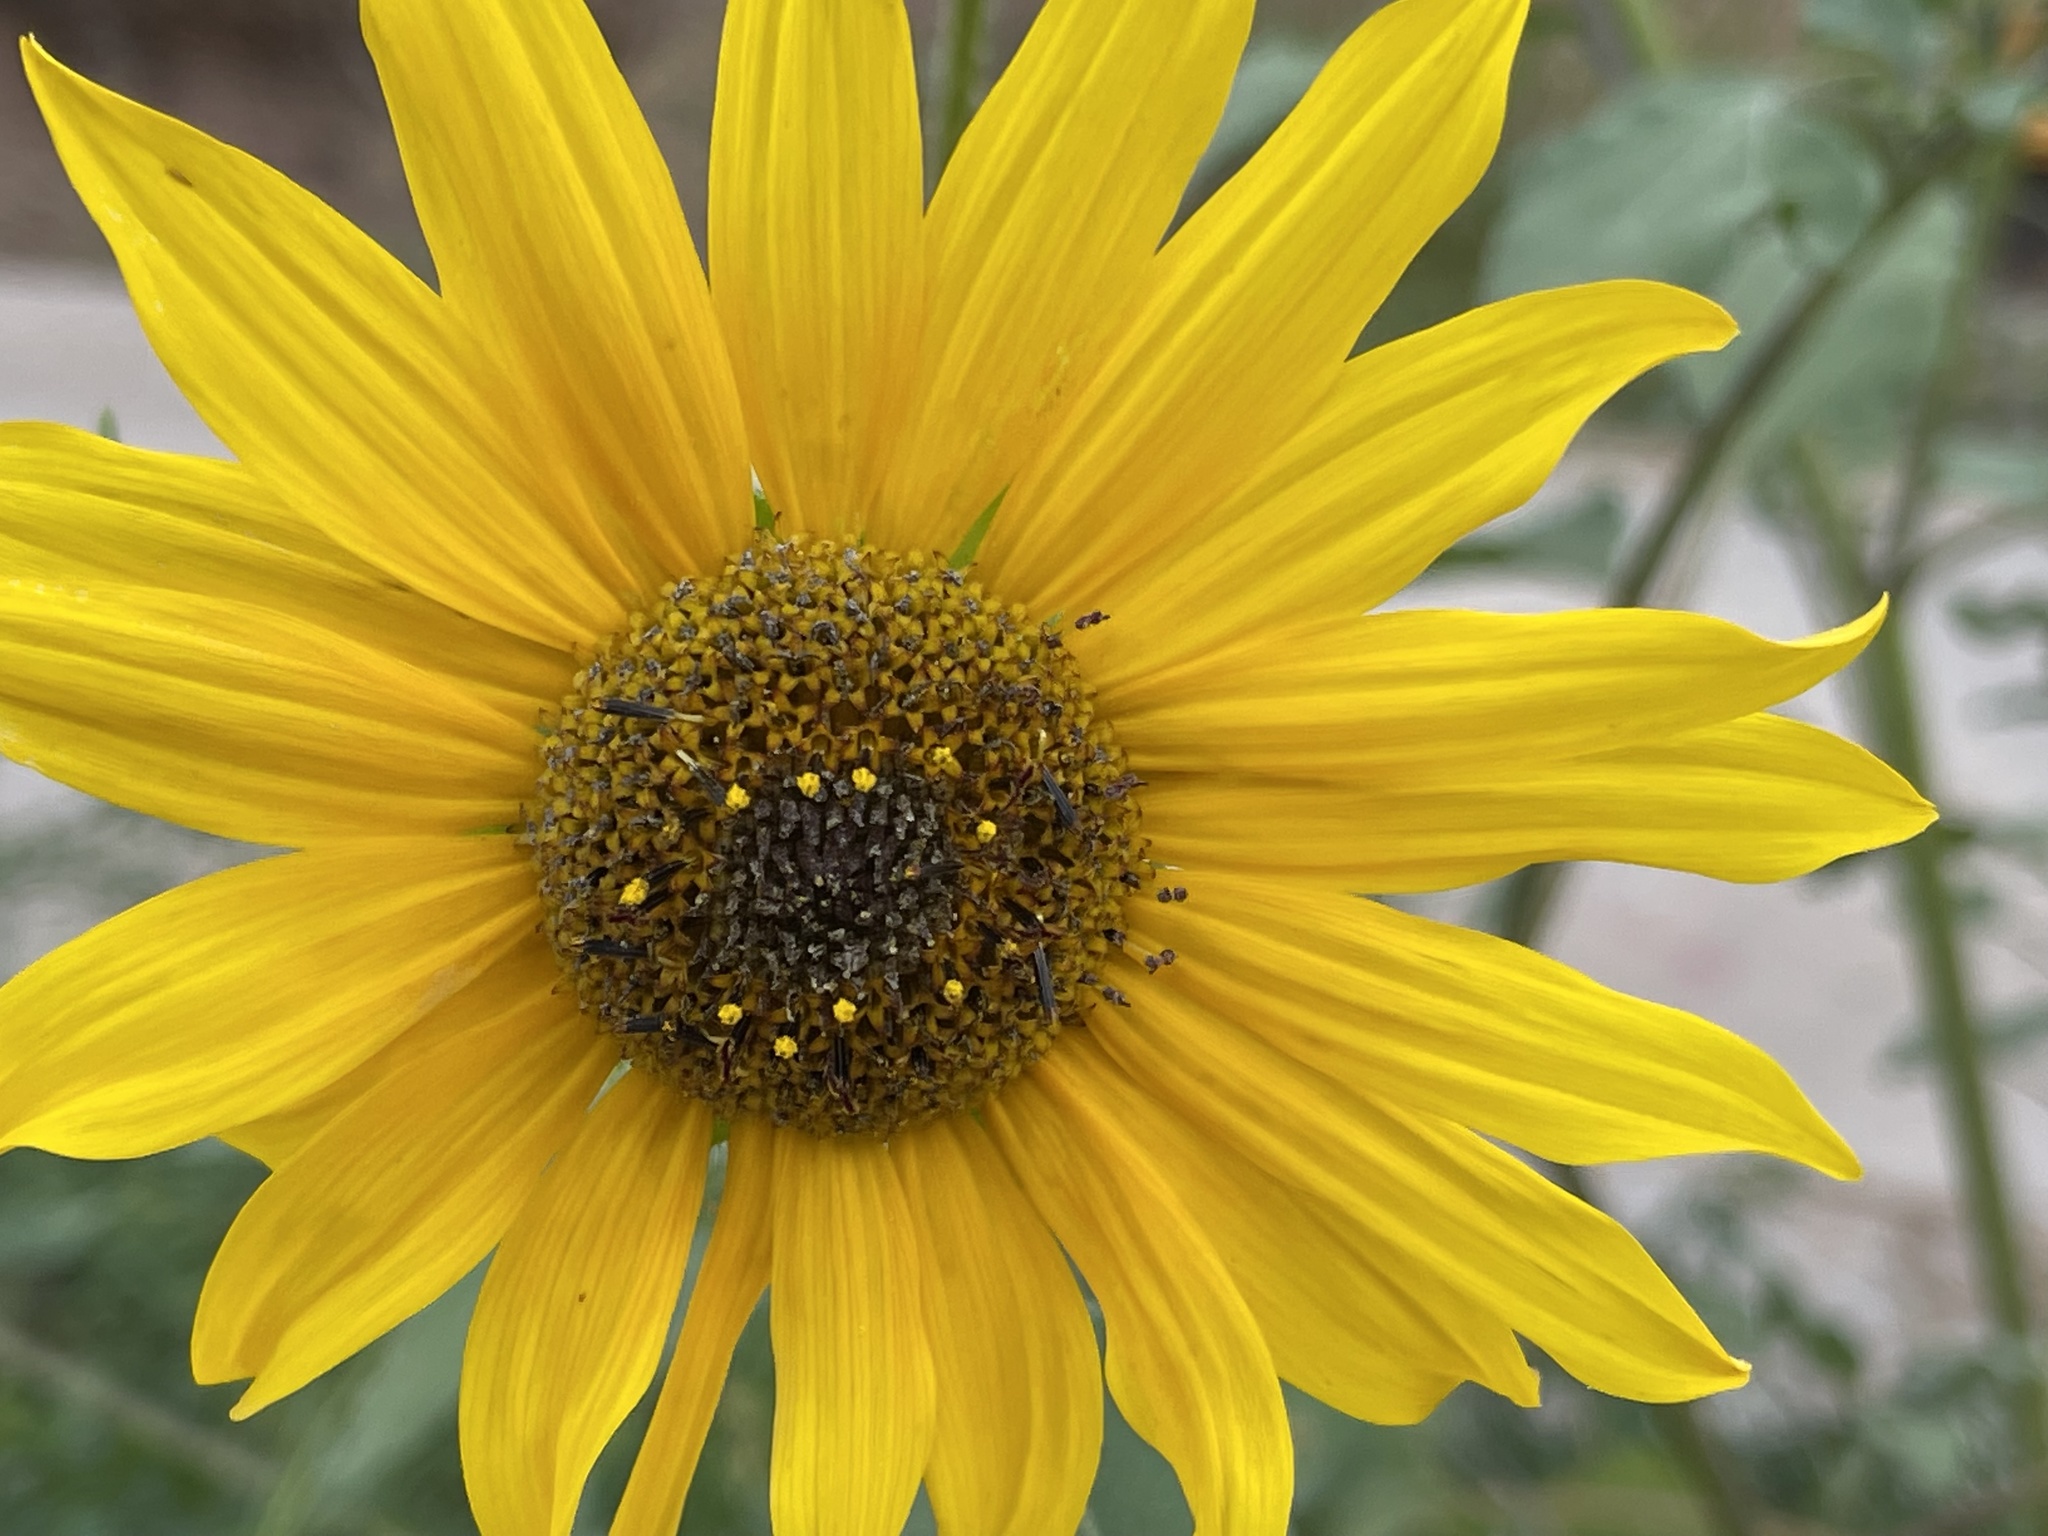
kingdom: Plantae
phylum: Tracheophyta
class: Magnoliopsida
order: Asterales
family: Asteraceae
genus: Helianthus
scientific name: Helianthus petiolaris
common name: Lesser sunflower
